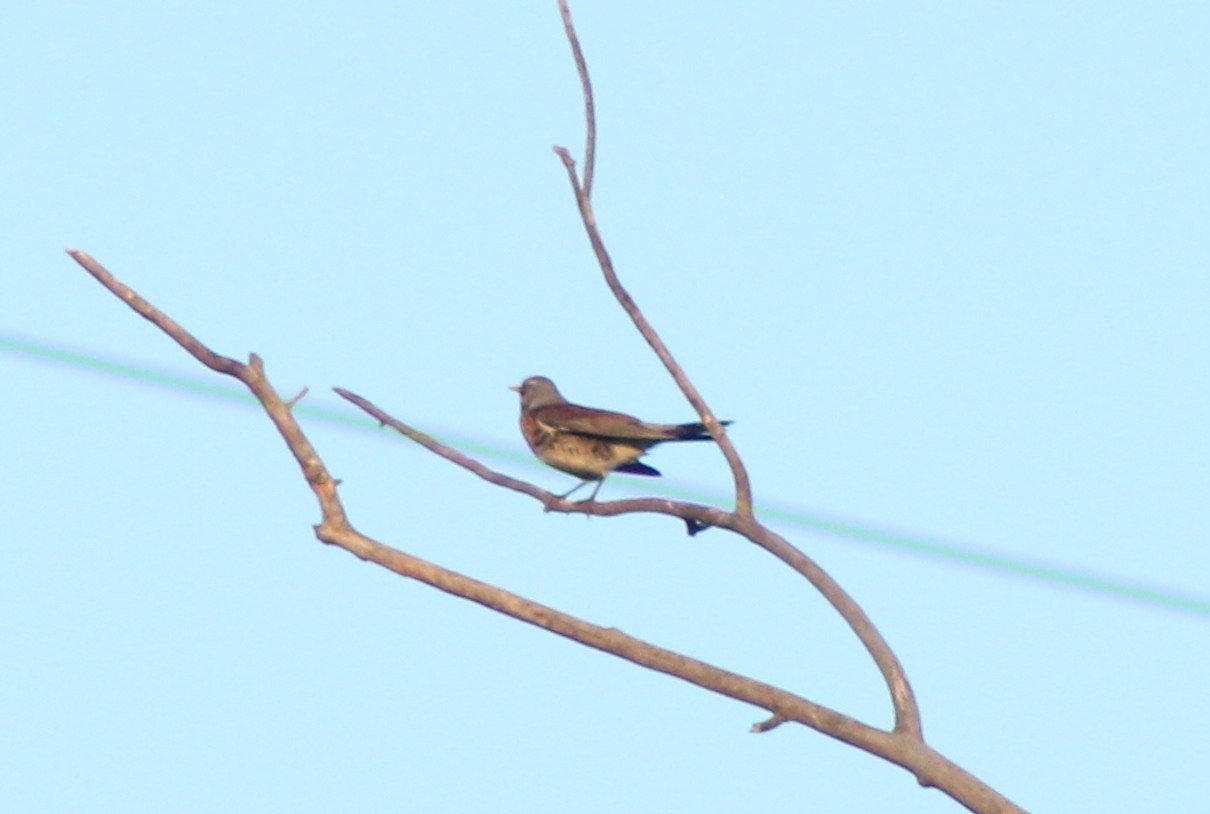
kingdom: Animalia
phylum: Chordata
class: Aves
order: Passeriformes
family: Turdidae
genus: Turdus
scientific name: Turdus pilaris
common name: Fieldfare
